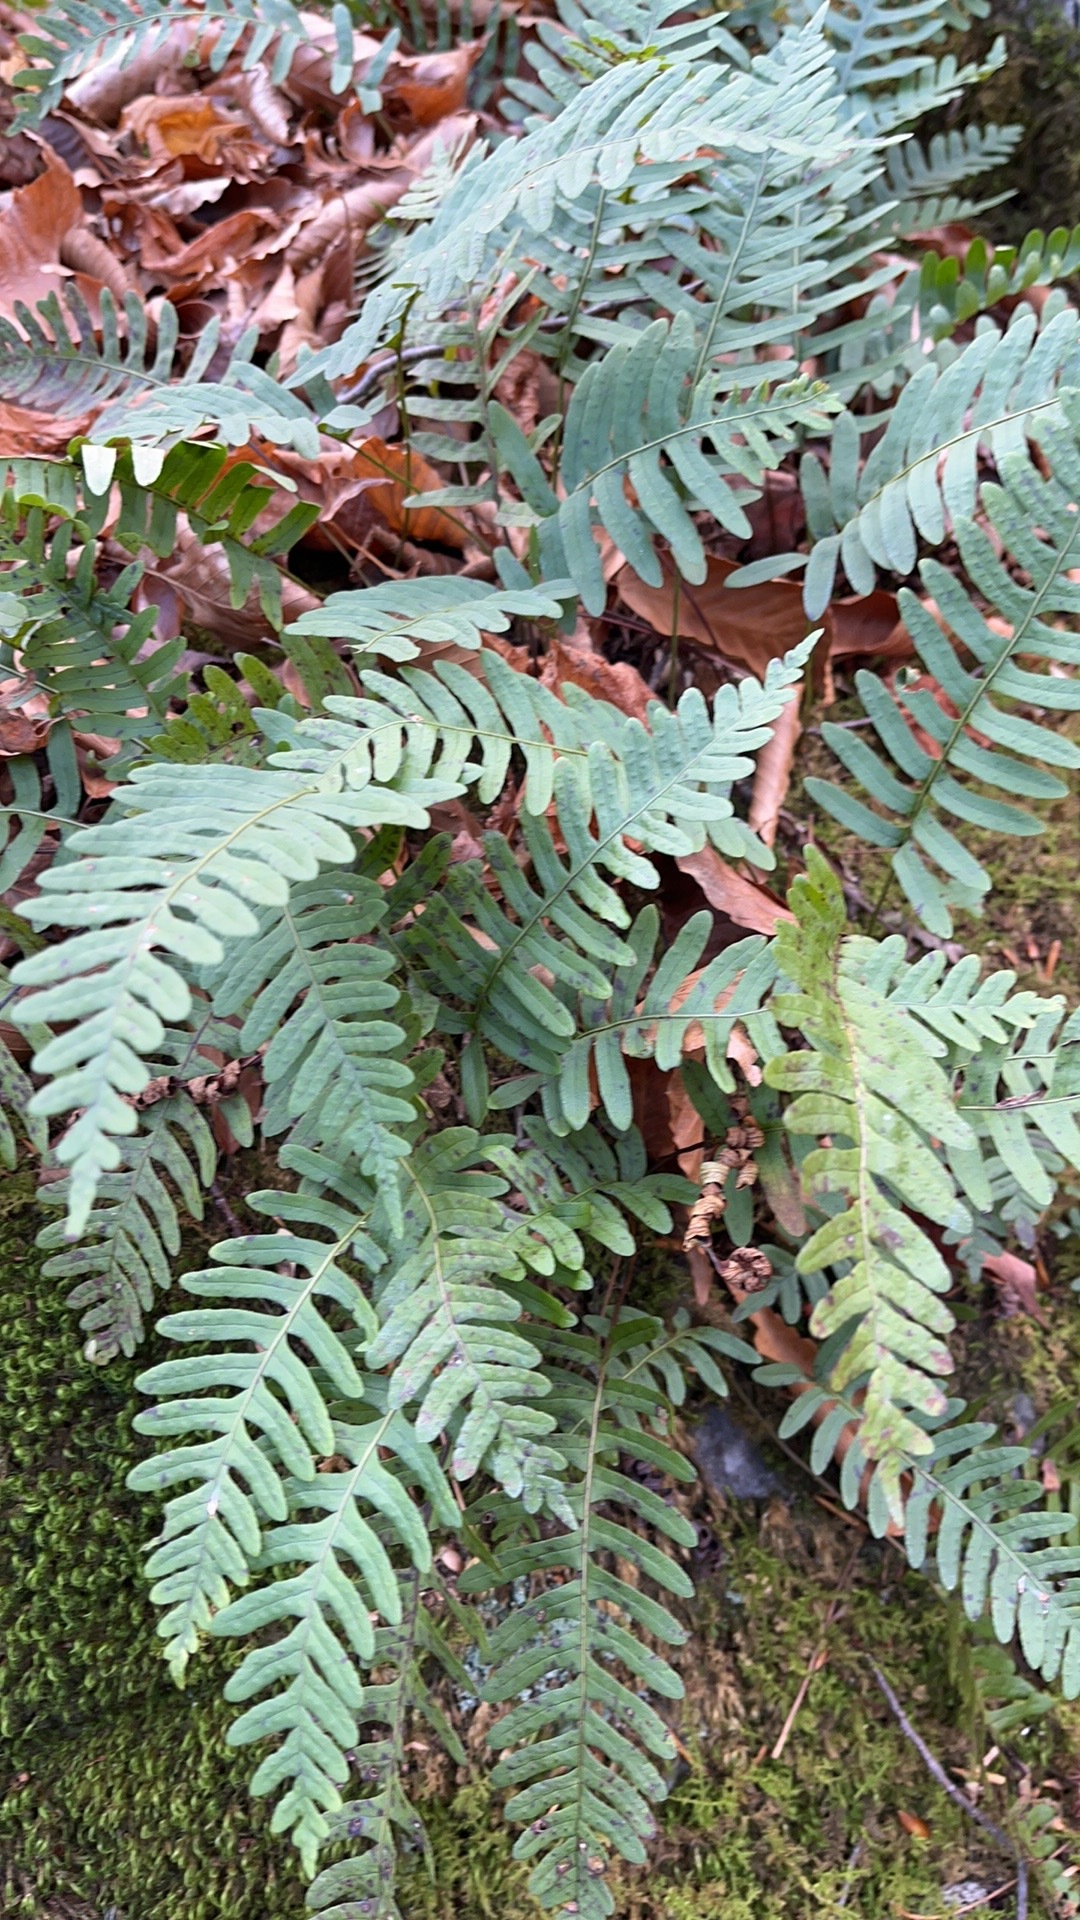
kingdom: Plantae
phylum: Tracheophyta
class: Polypodiopsida
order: Polypodiales
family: Polypodiaceae
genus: Polypodium
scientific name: Polypodium virginianum
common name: American wall fern
